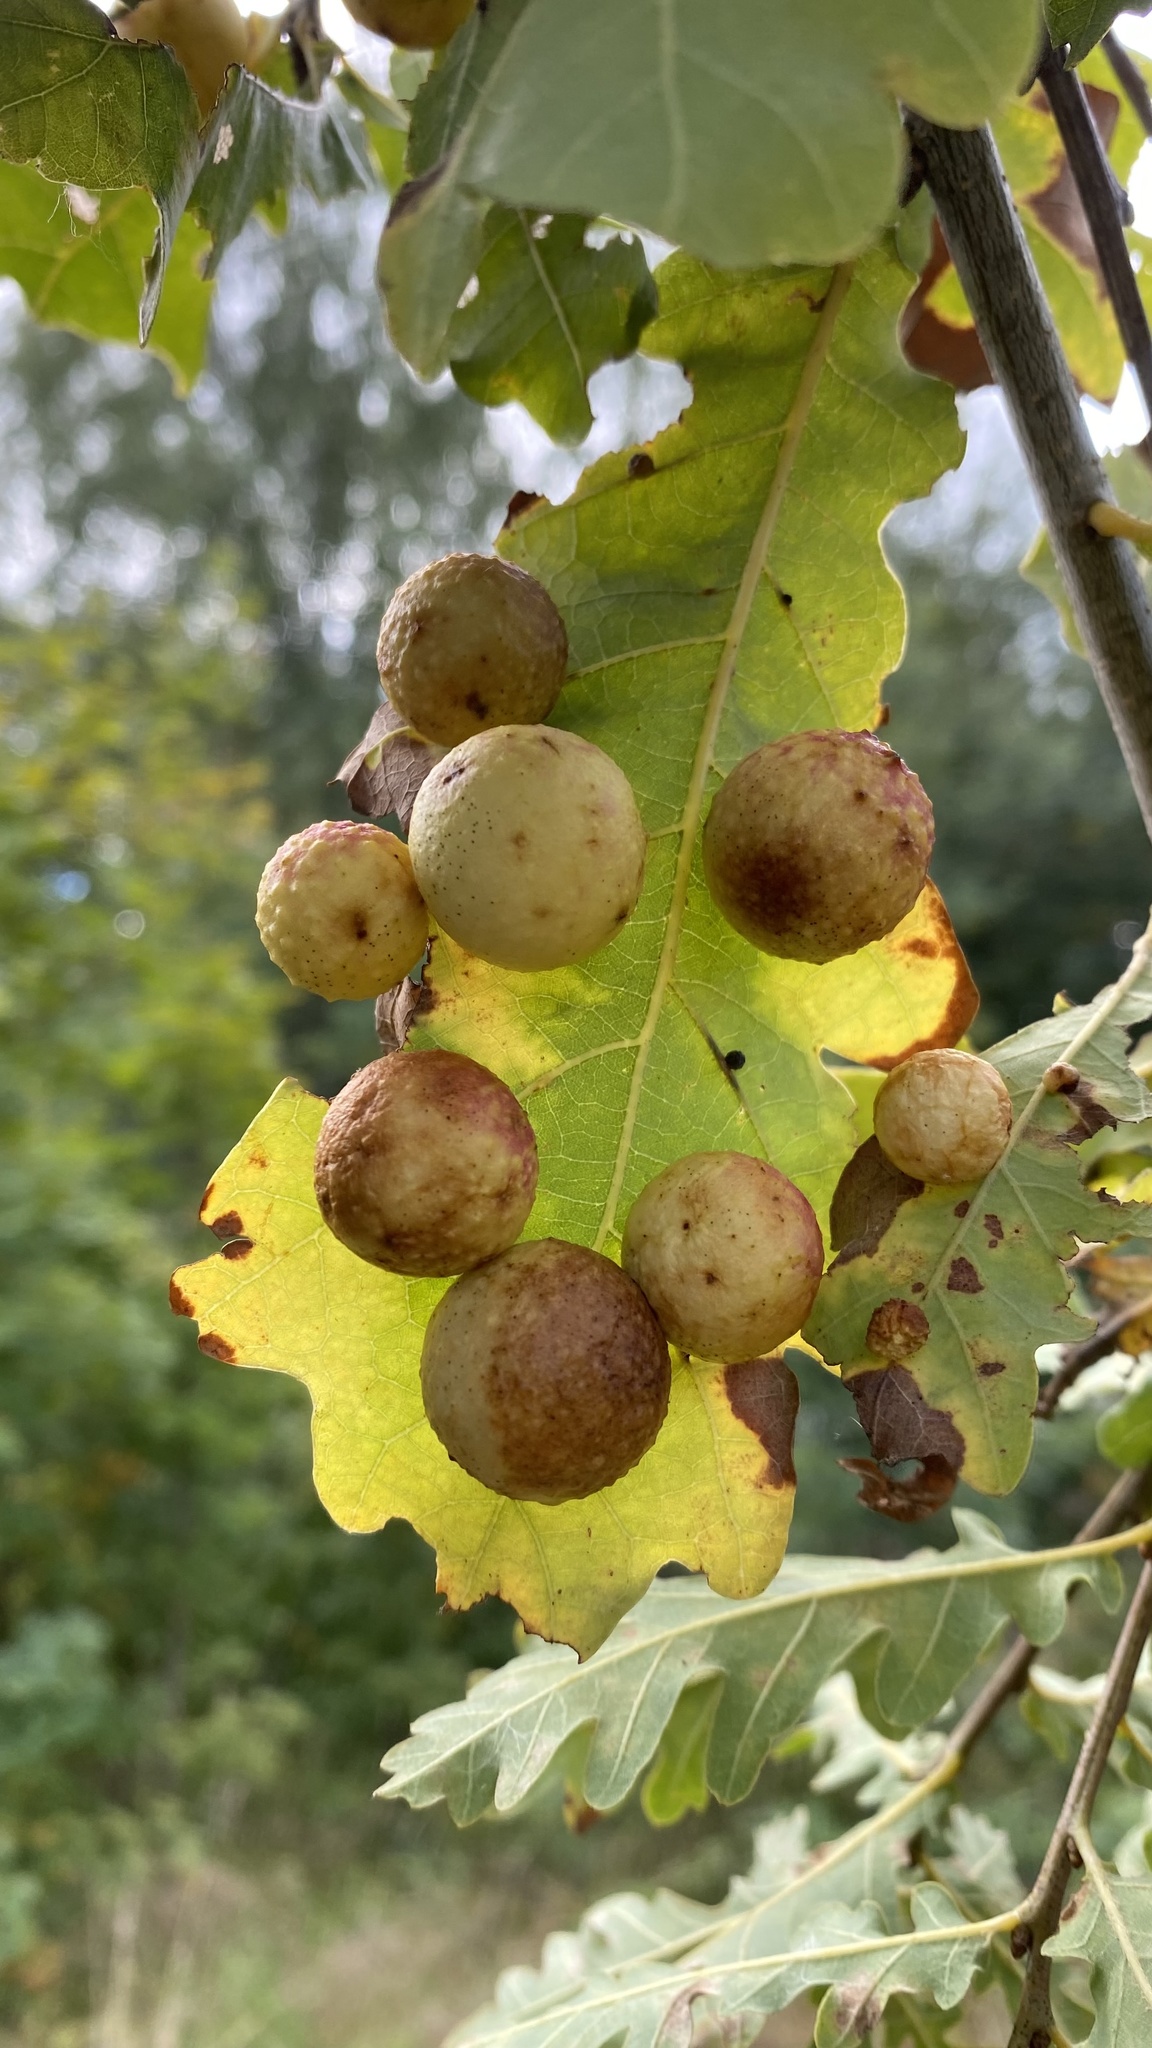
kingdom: Animalia
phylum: Arthropoda
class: Insecta
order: Hymenoptera
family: Cynipidae
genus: Cynips
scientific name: Cynips quercusfolii
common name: Cherry gall
